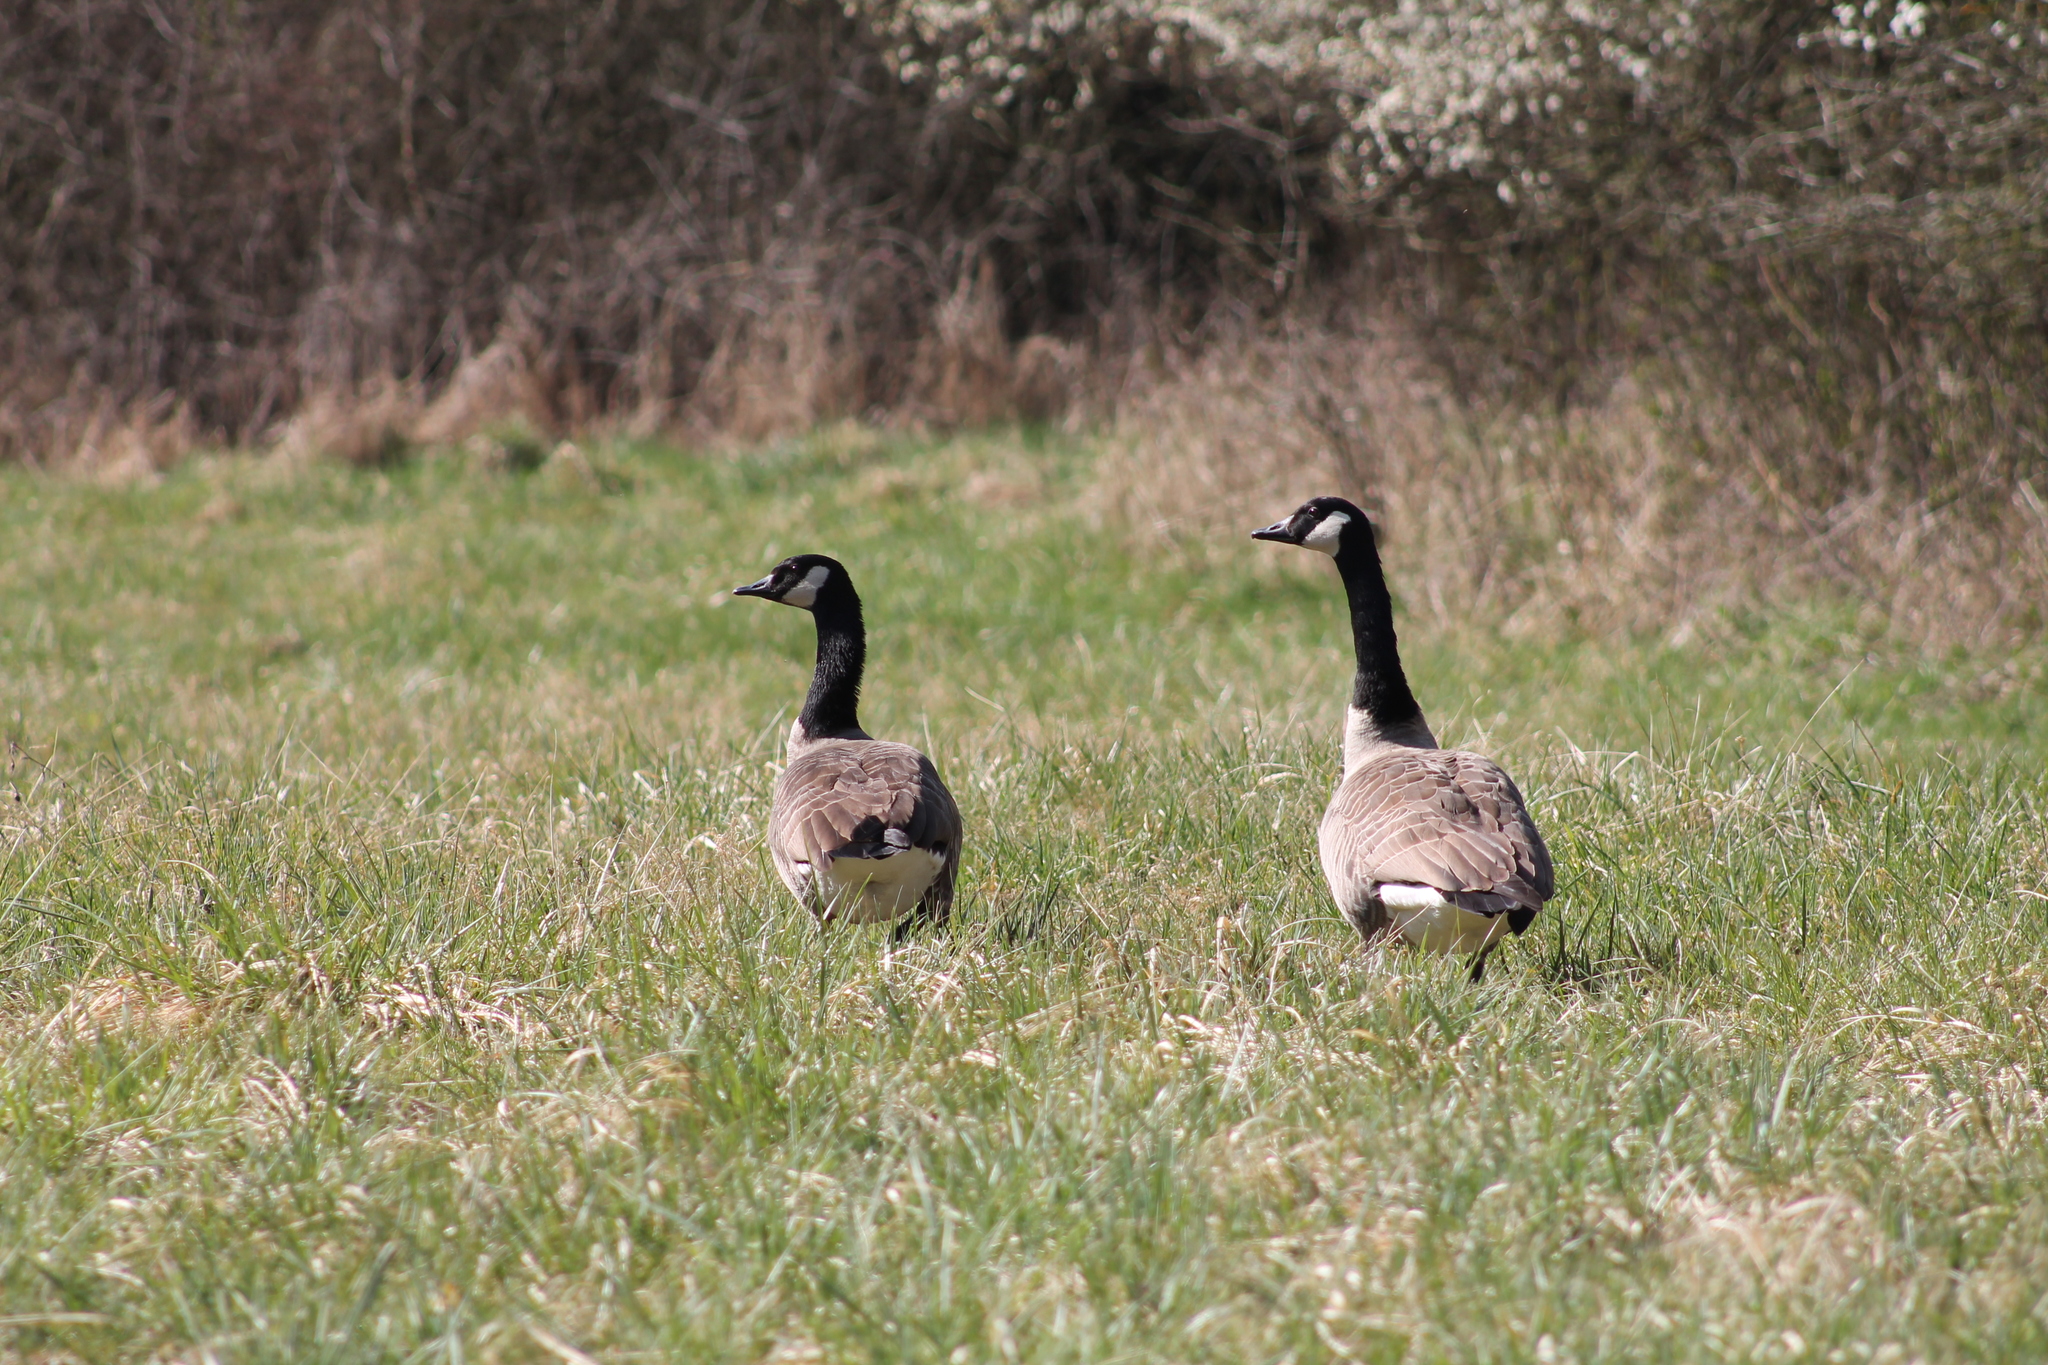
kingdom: Animalia
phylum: Chordata
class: Aves
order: Anseriformes
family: Anatidae
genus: Branta
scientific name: Branta canadensis
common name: Canada goose
